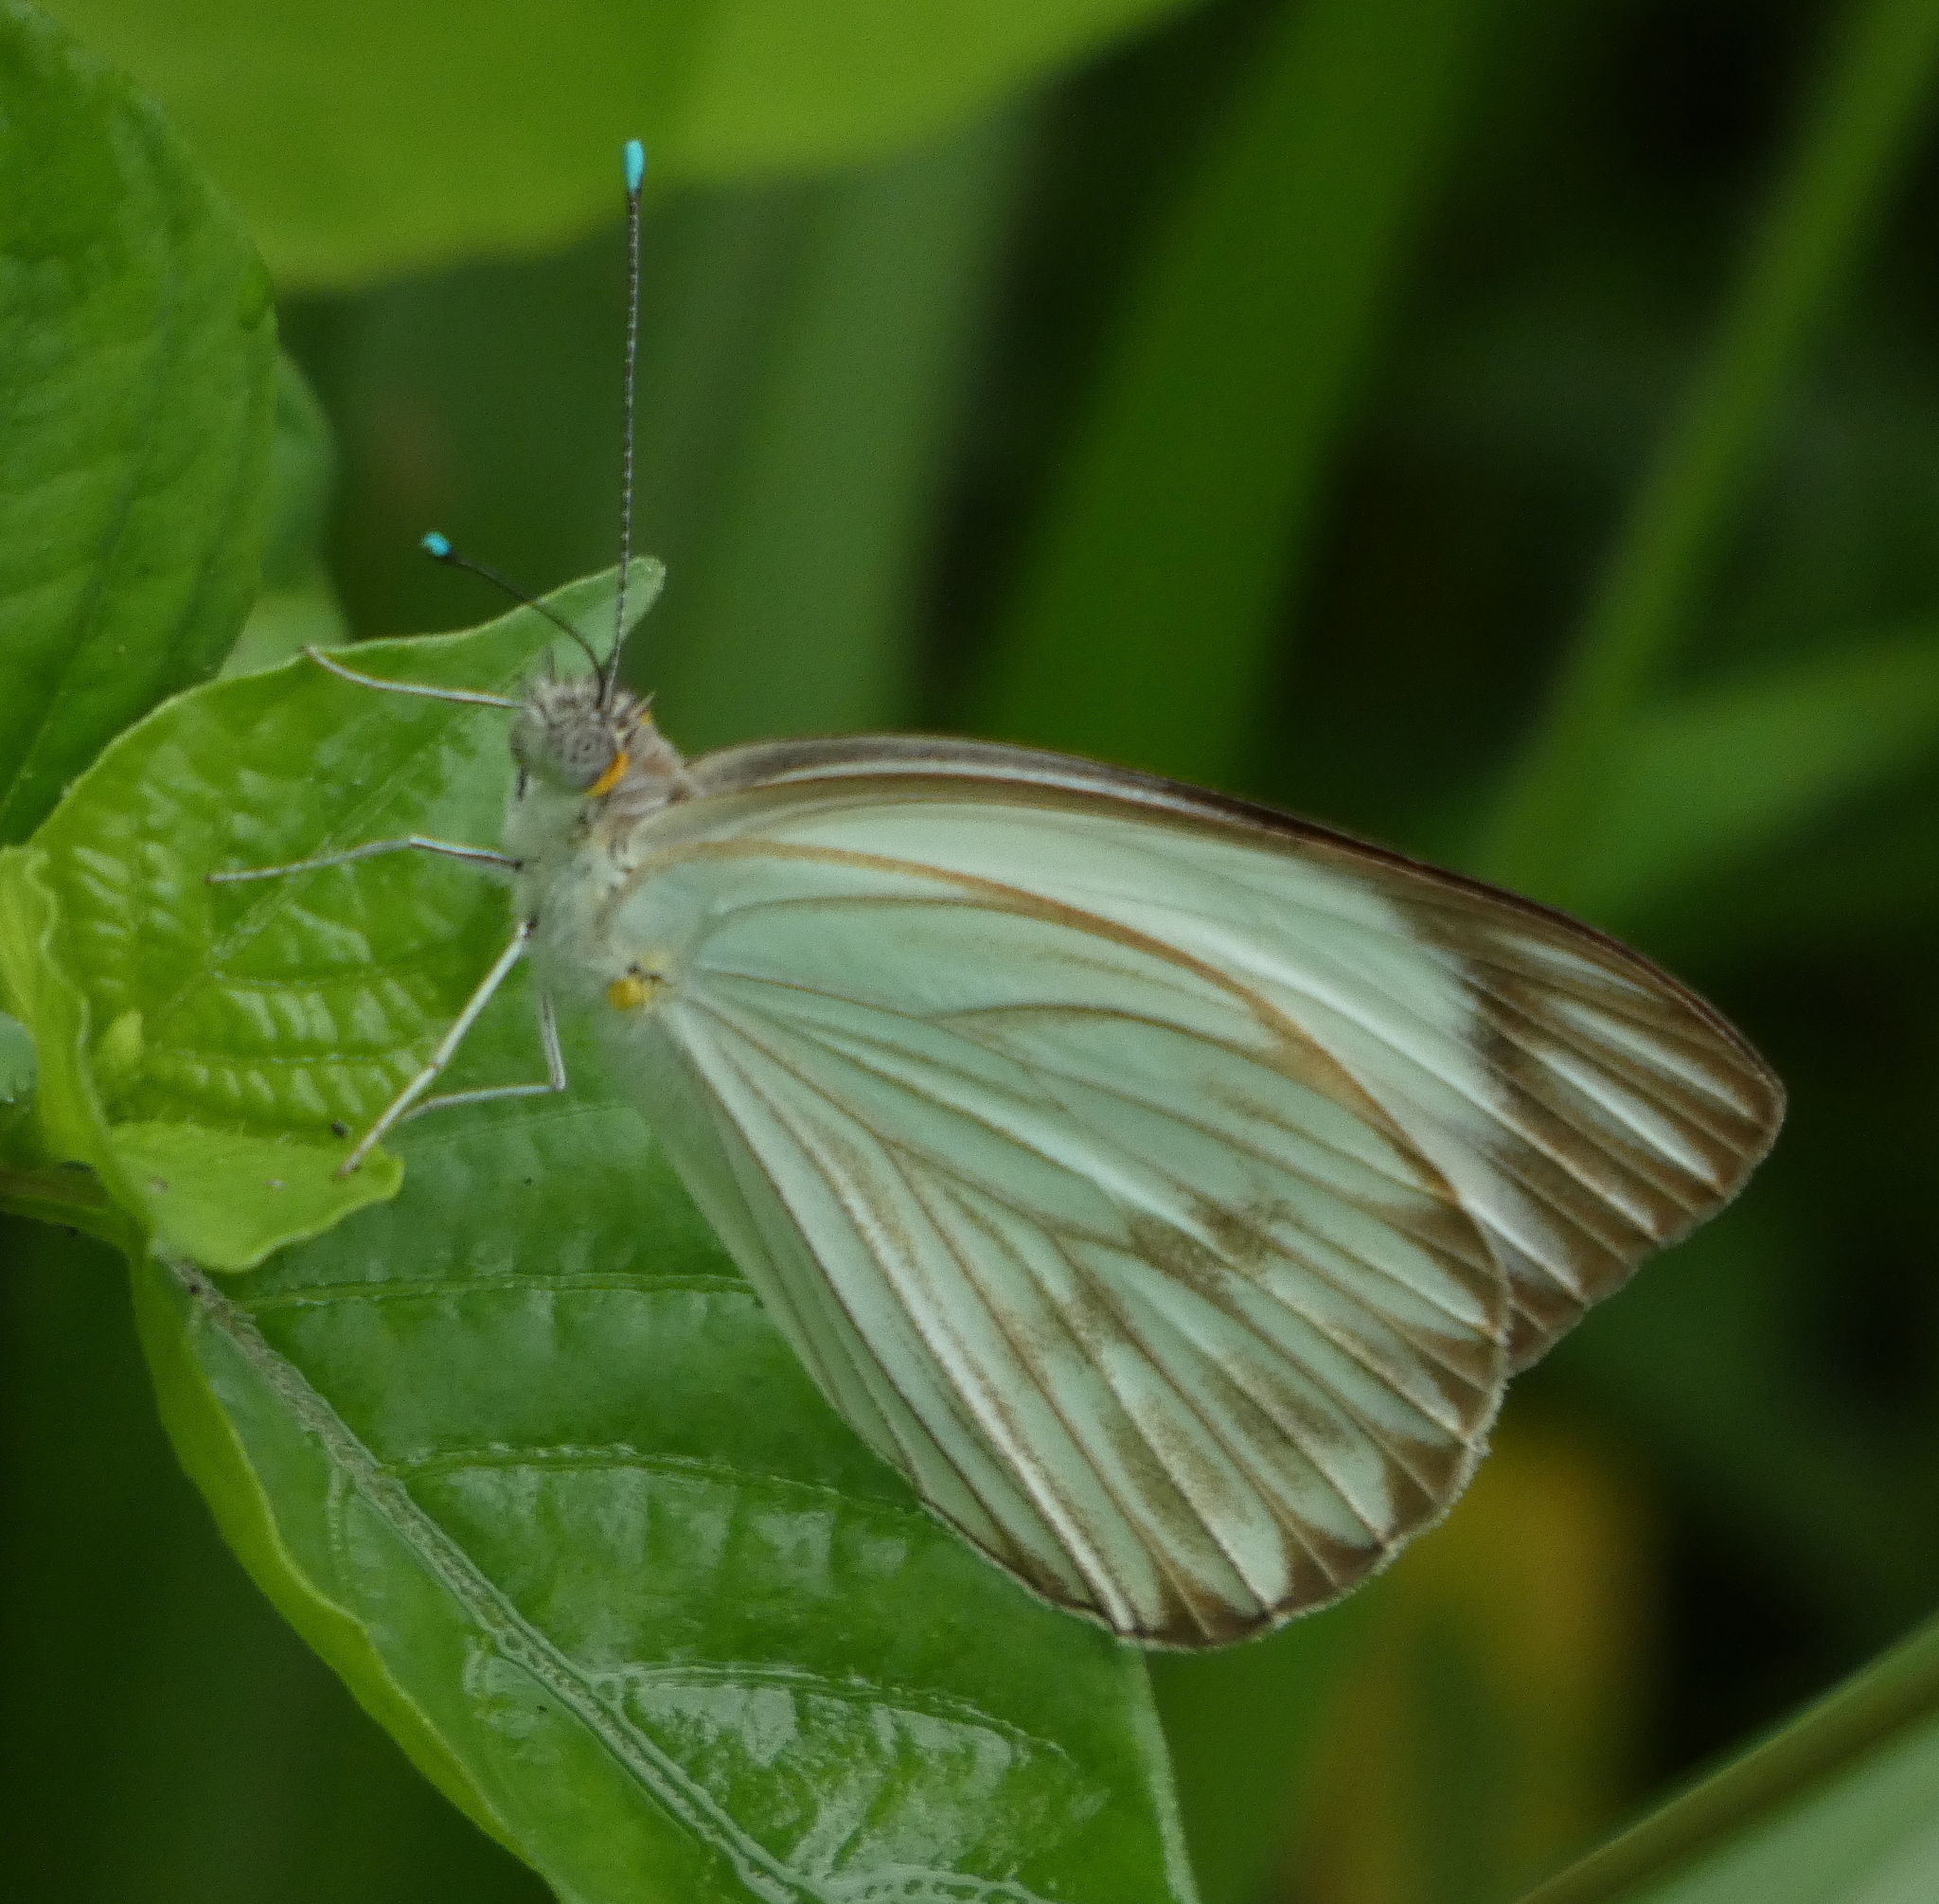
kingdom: Animalia
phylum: Arthropoda
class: Insecta
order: Lepidoptera
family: Pieridae
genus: Ascia
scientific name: Ascia monuste
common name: Great southern white
